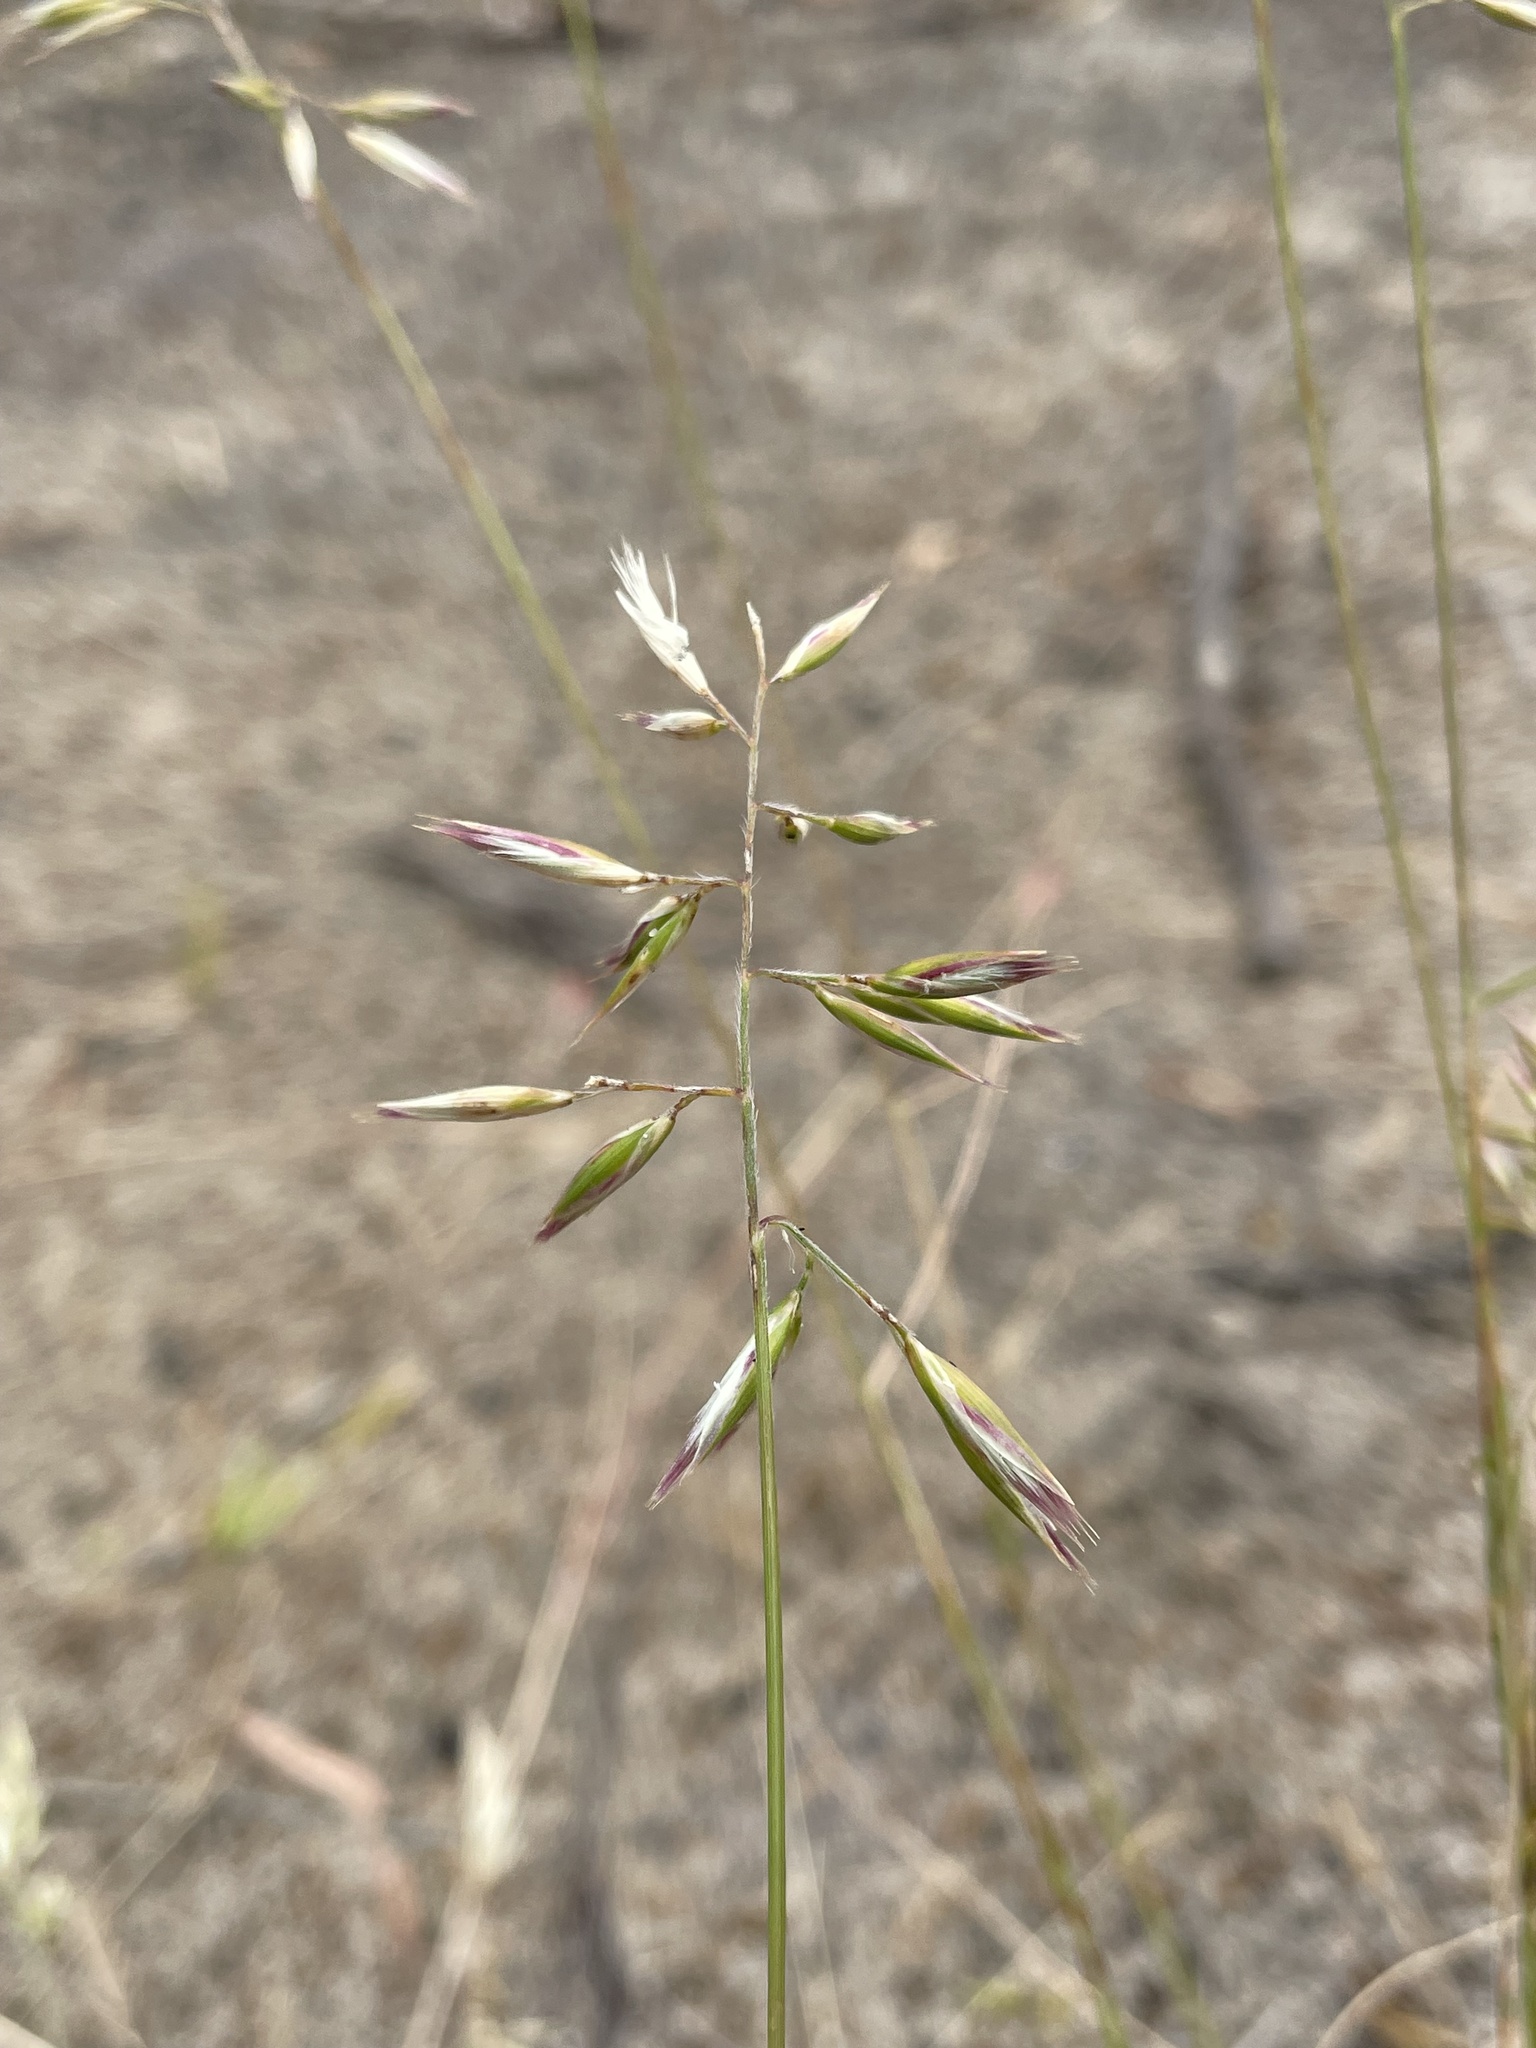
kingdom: Plantae
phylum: Tracheophyta
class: Liliopsida
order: Poales
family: Poaceae
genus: Rytidosperma
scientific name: Rytidosperma geniculatum
